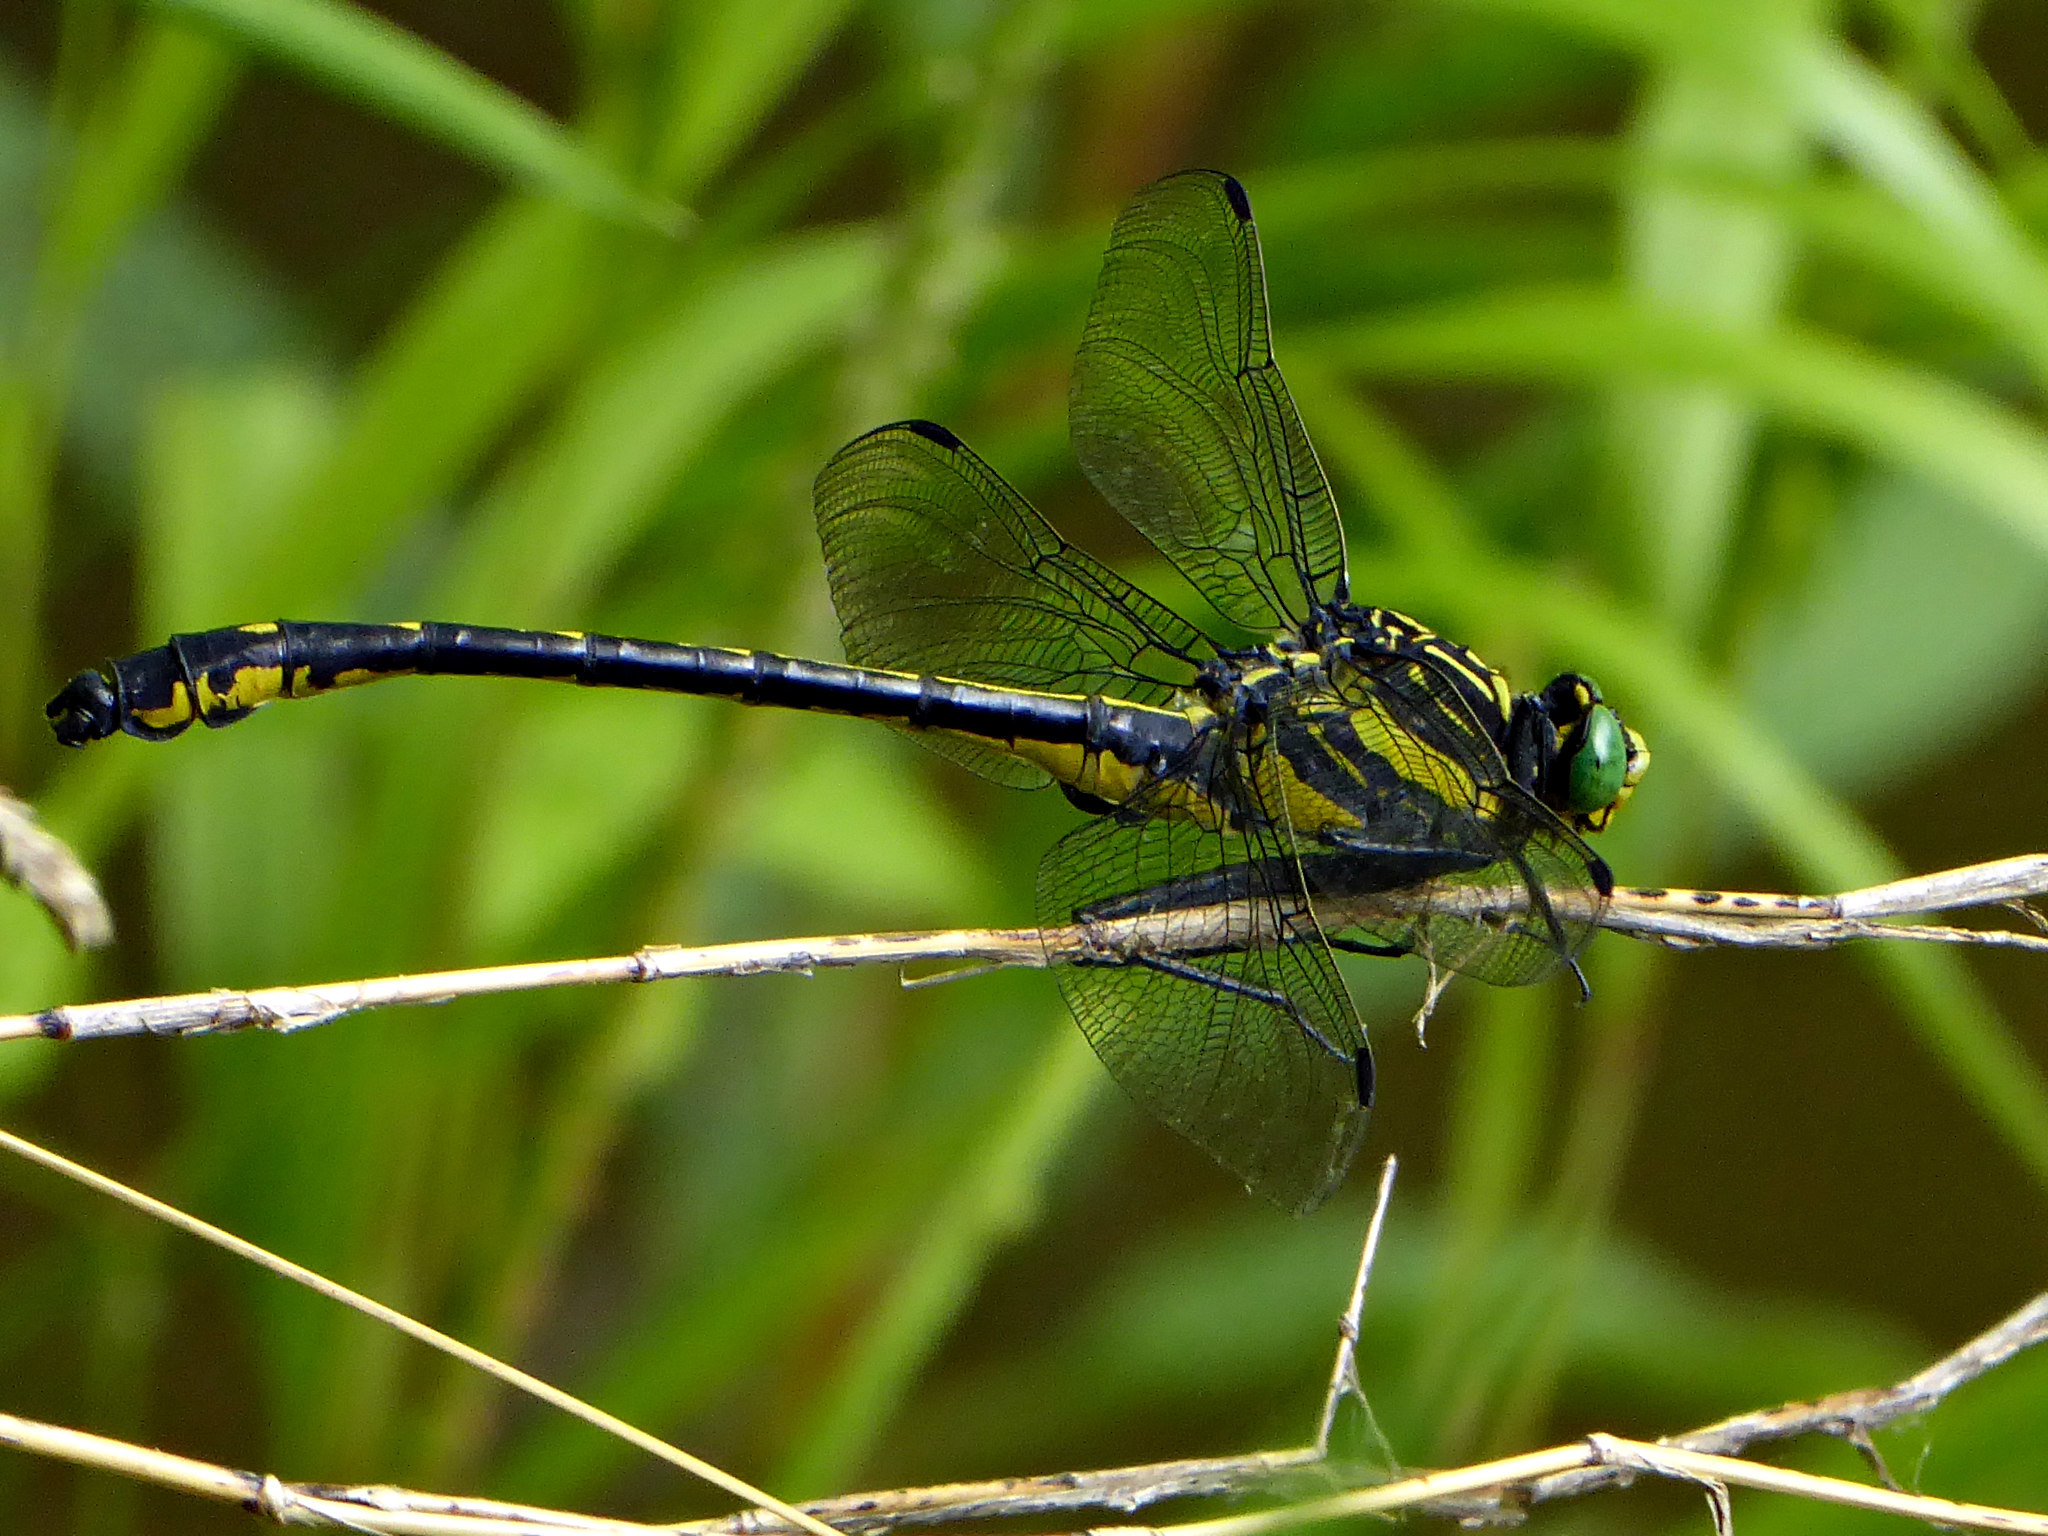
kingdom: Animalia
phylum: Arthropoda
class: Insecta
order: Odonata
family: Gomphidae
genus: Hagenius
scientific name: Hagenius brevistylus
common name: Dragonhunter
